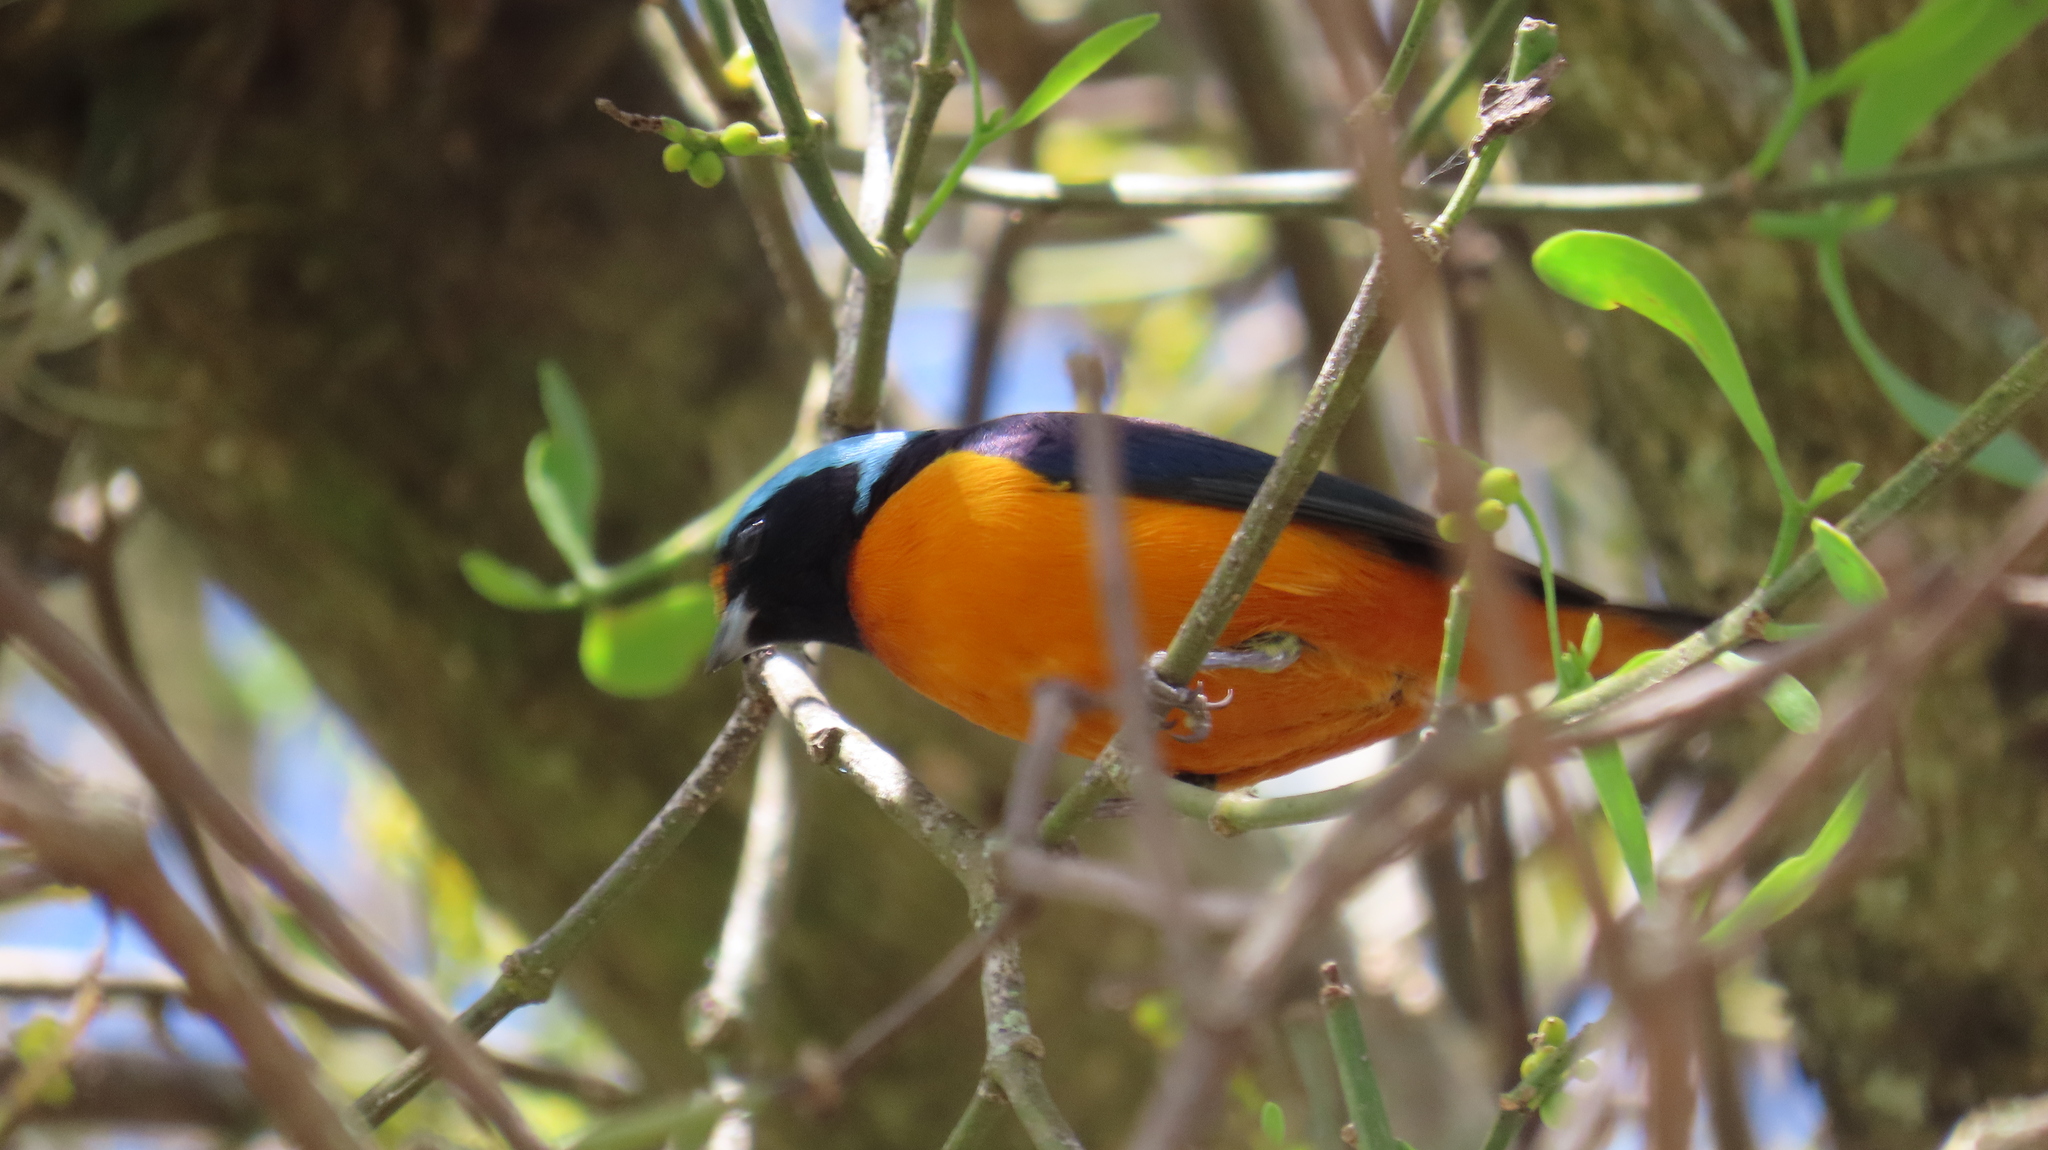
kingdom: Animalia
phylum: Chordata
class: Aves
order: Passeriformes
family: Fringillidae
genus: Euphonia
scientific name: Euphonia elegantissima
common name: Elegant euphonia
